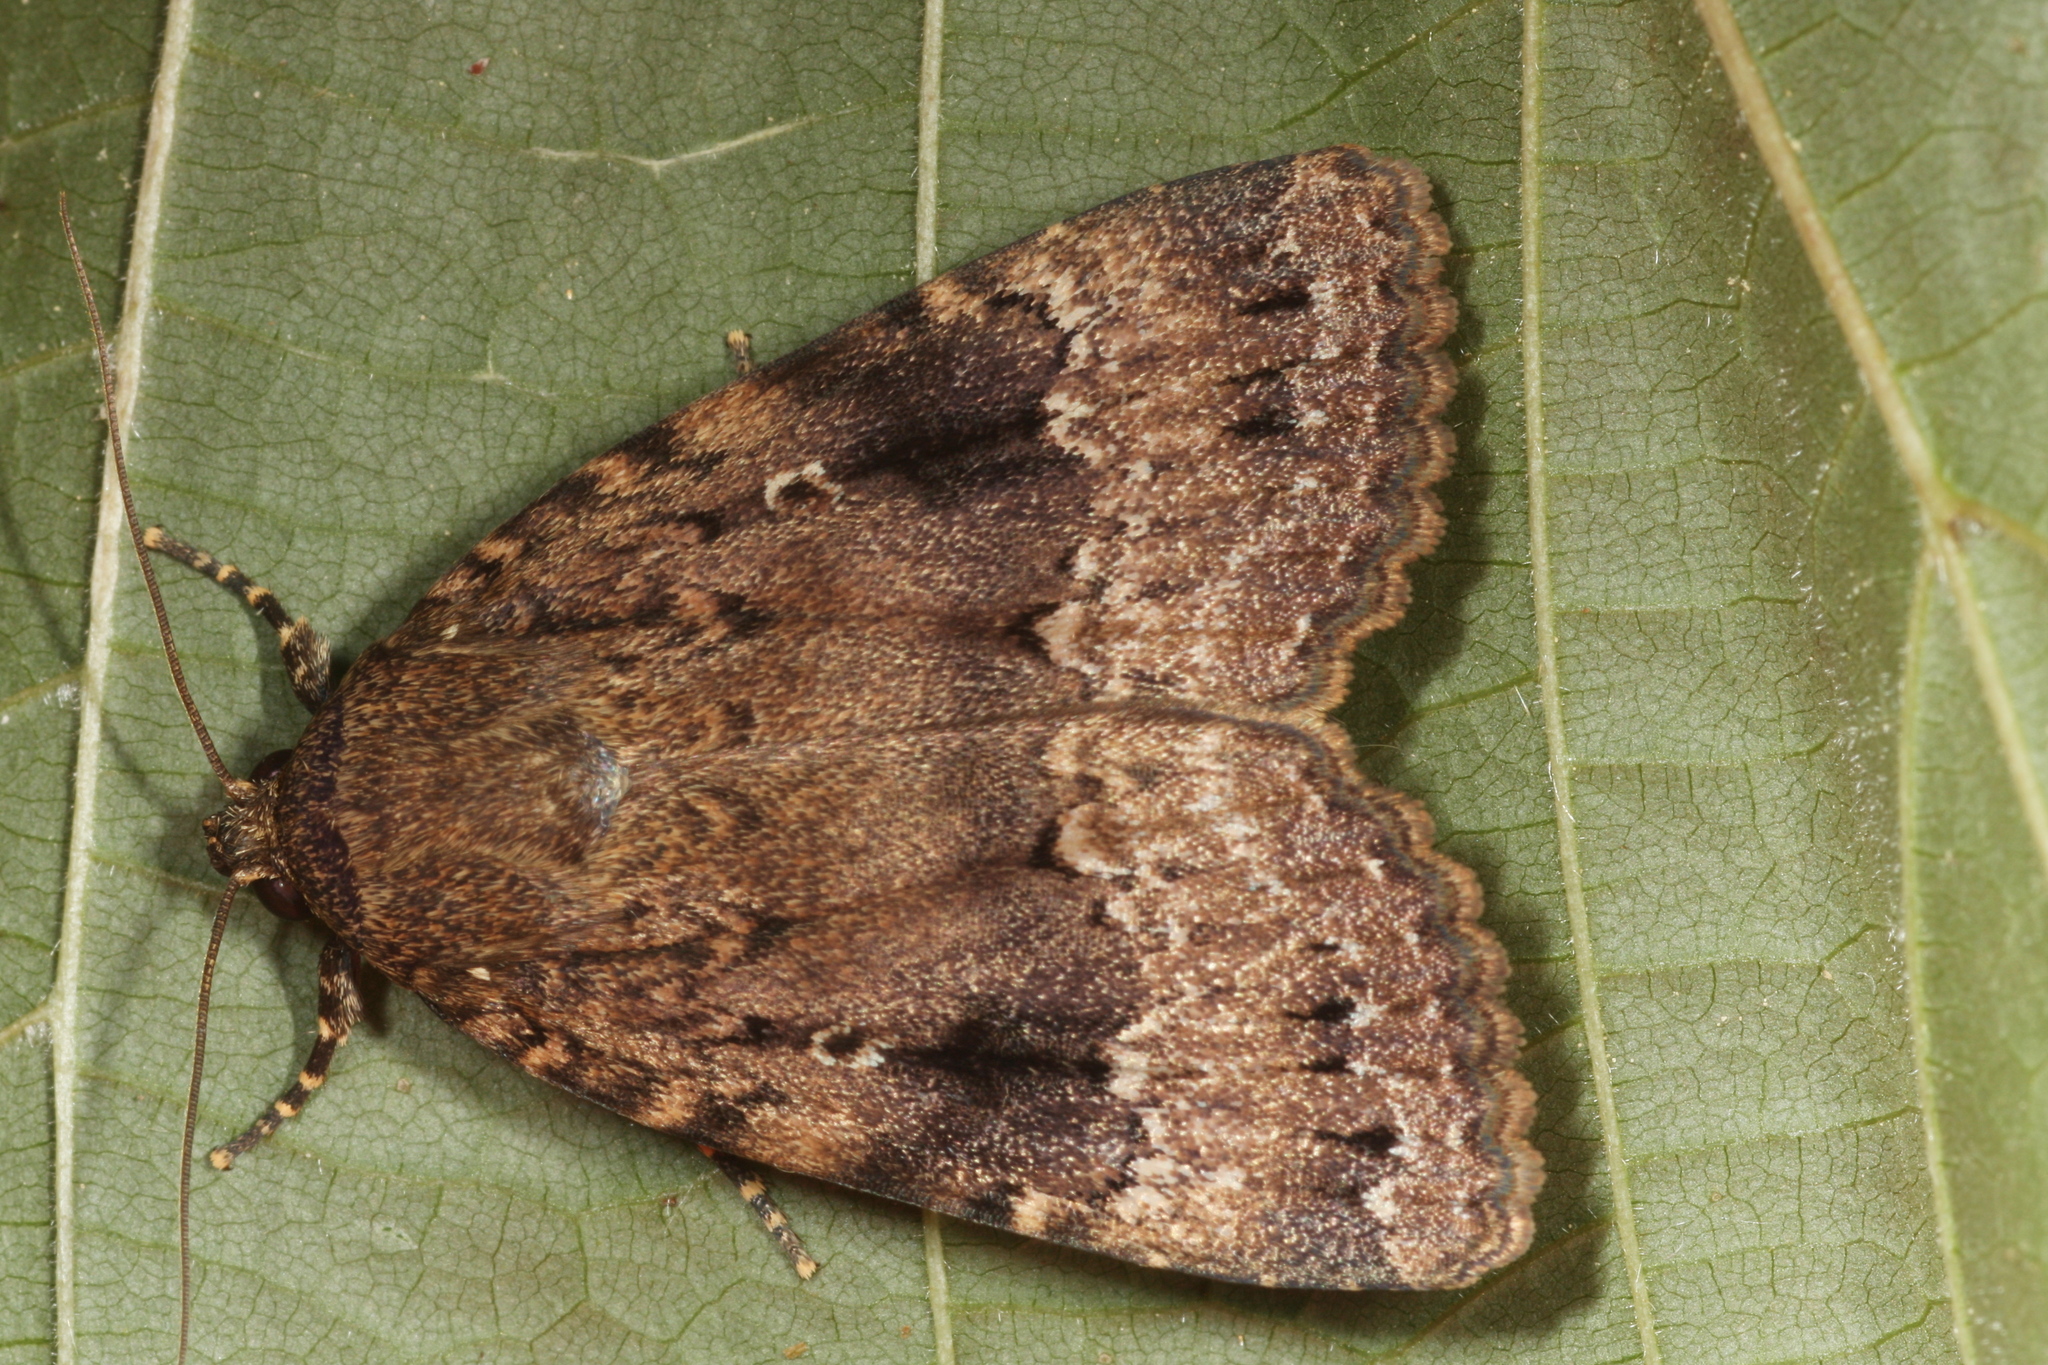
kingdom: Animalia
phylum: Arthropoda
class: Insecta
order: Lepidoptera
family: Noctuidae
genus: Amphipyra
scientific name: Amphipyra pyramidea
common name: Copper underwing
